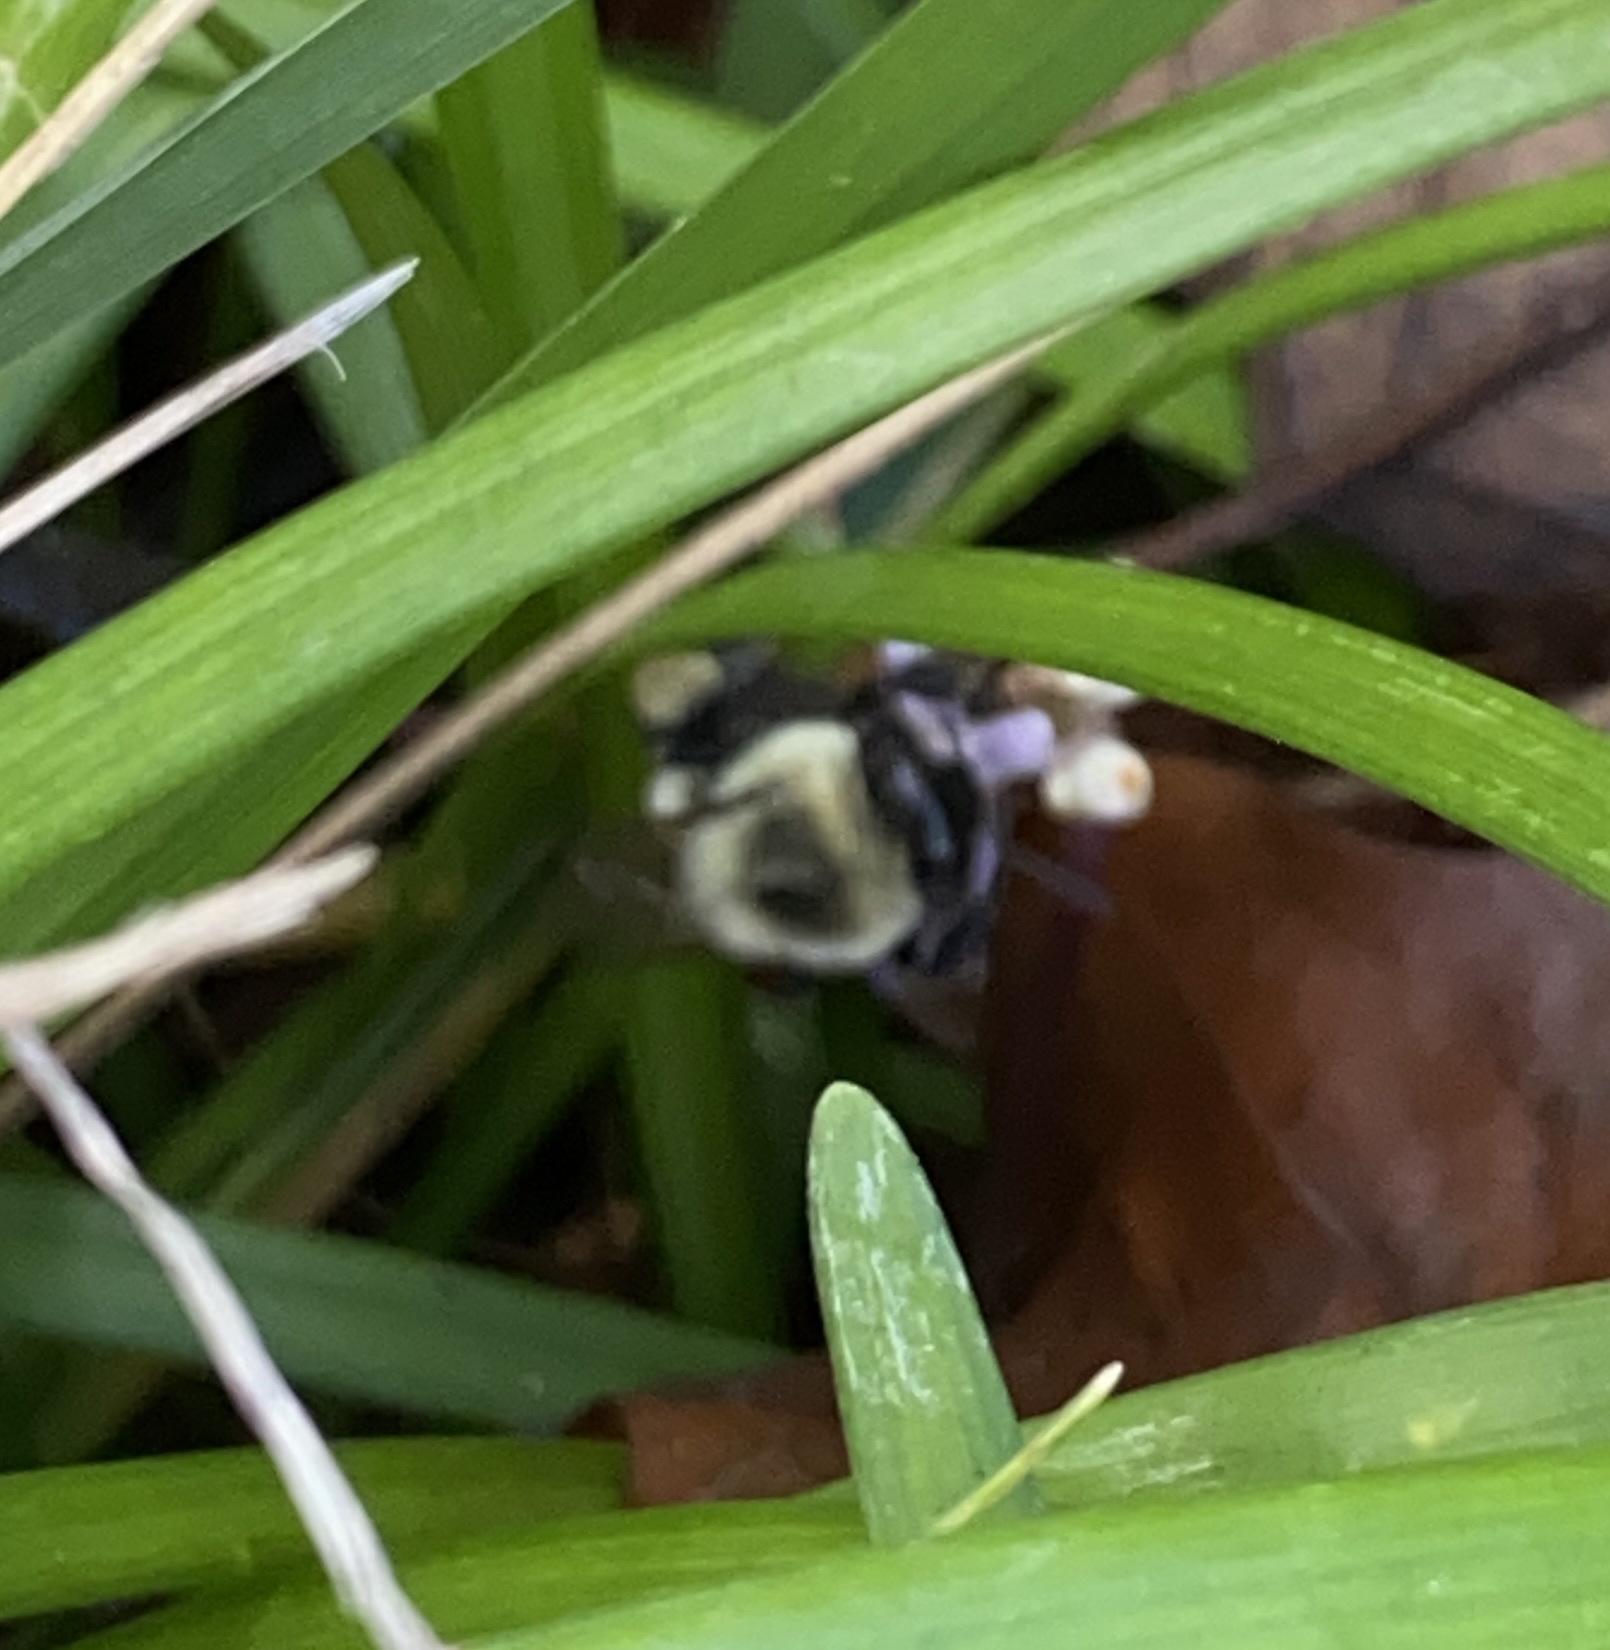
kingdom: Animalia
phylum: Arthropoda
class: Insecta
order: Hymenoptera
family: Apidae
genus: Bombus
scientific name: Bombus impatiens
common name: Common eastern bumble bee
